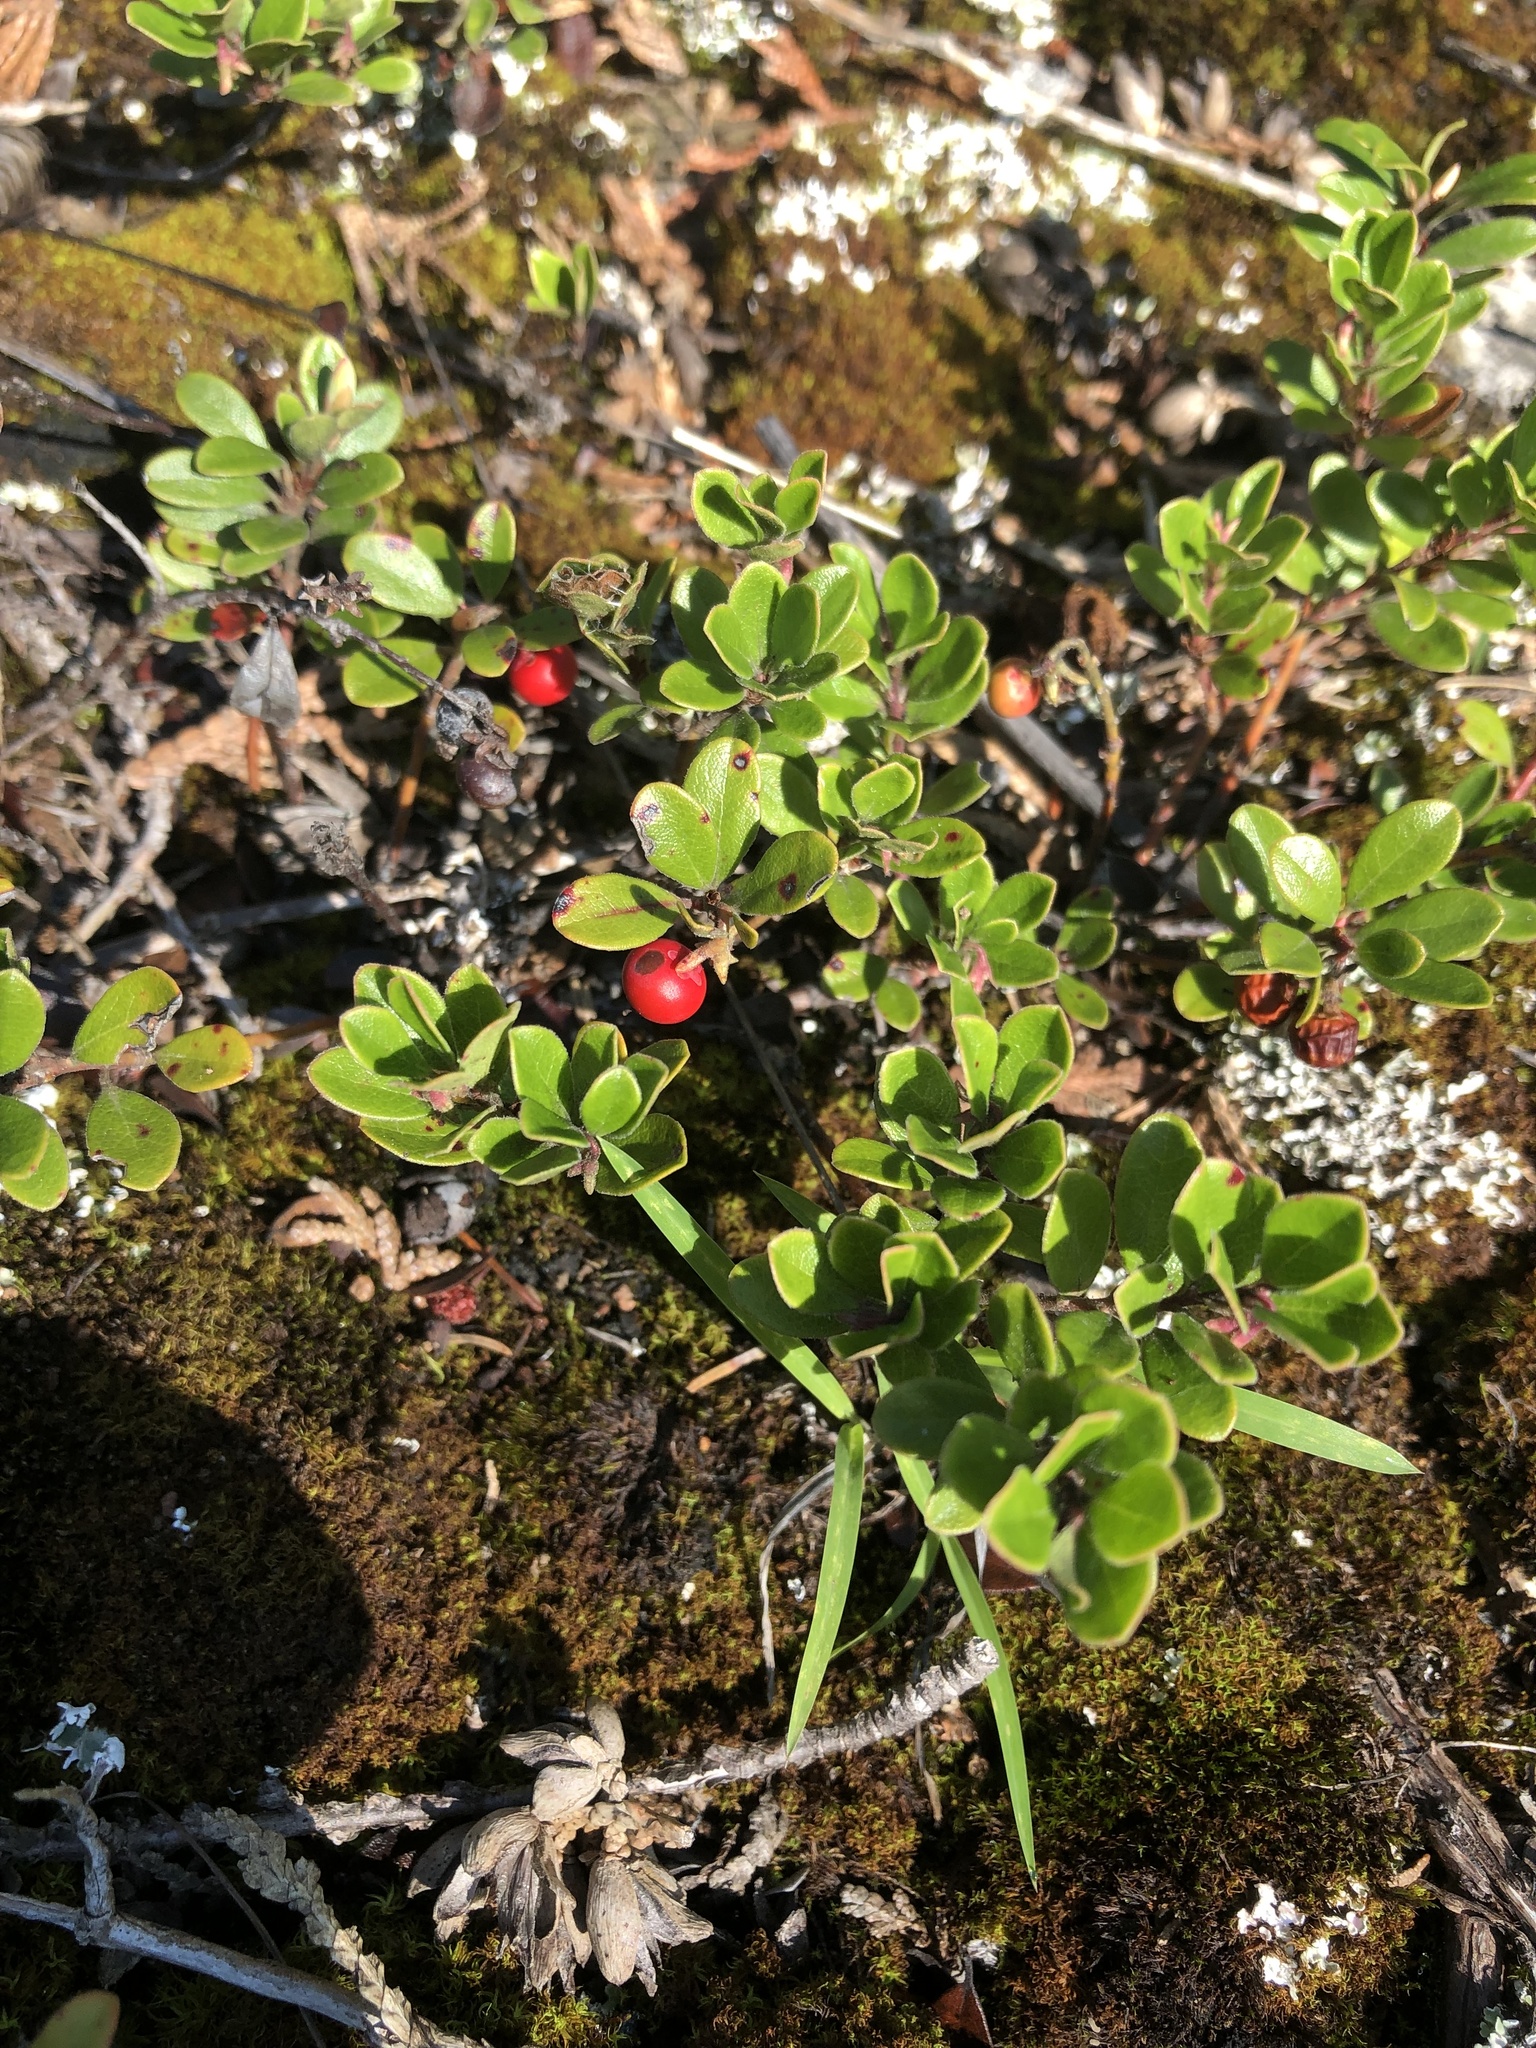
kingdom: Plantae
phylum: Tracheophyta
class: Magnoliopsida
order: Ericales
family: Ericaceae
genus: Arctostaphylos
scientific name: Arctostaphylos uva-ursi
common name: Bearberry
